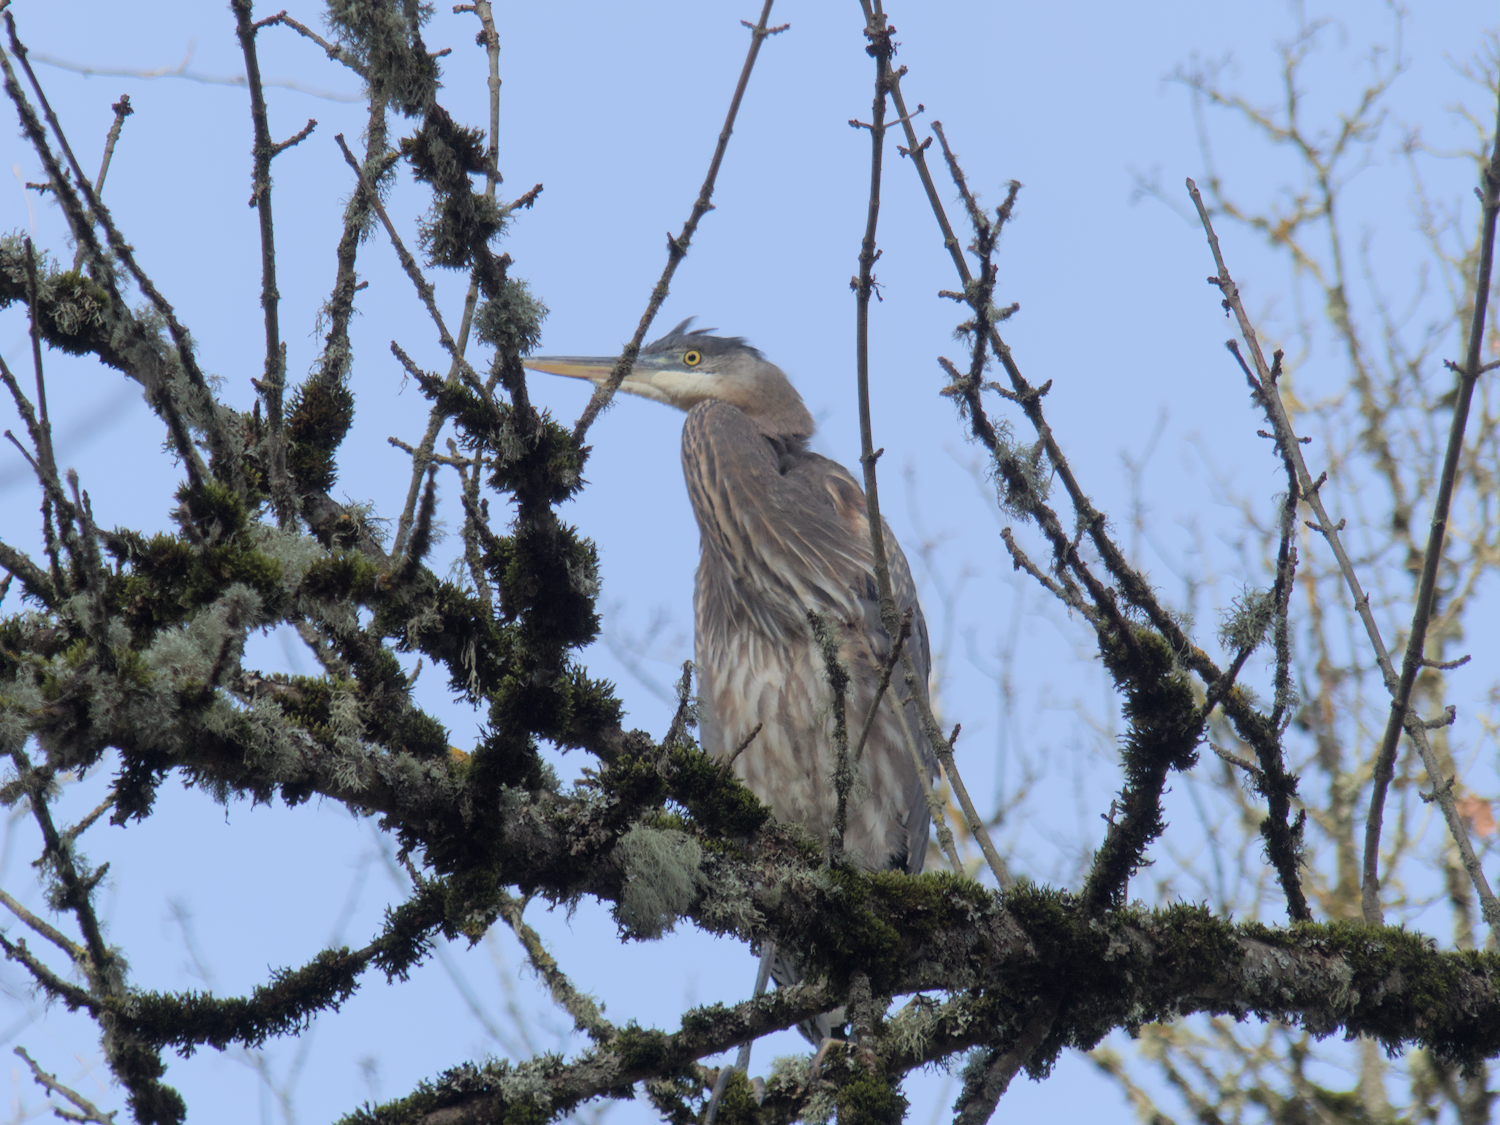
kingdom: Animalia
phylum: Chordata
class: Aves
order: Pelecaniformes
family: Ardeidae
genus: Ardea
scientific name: Ardea herodias
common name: Great blue heron
